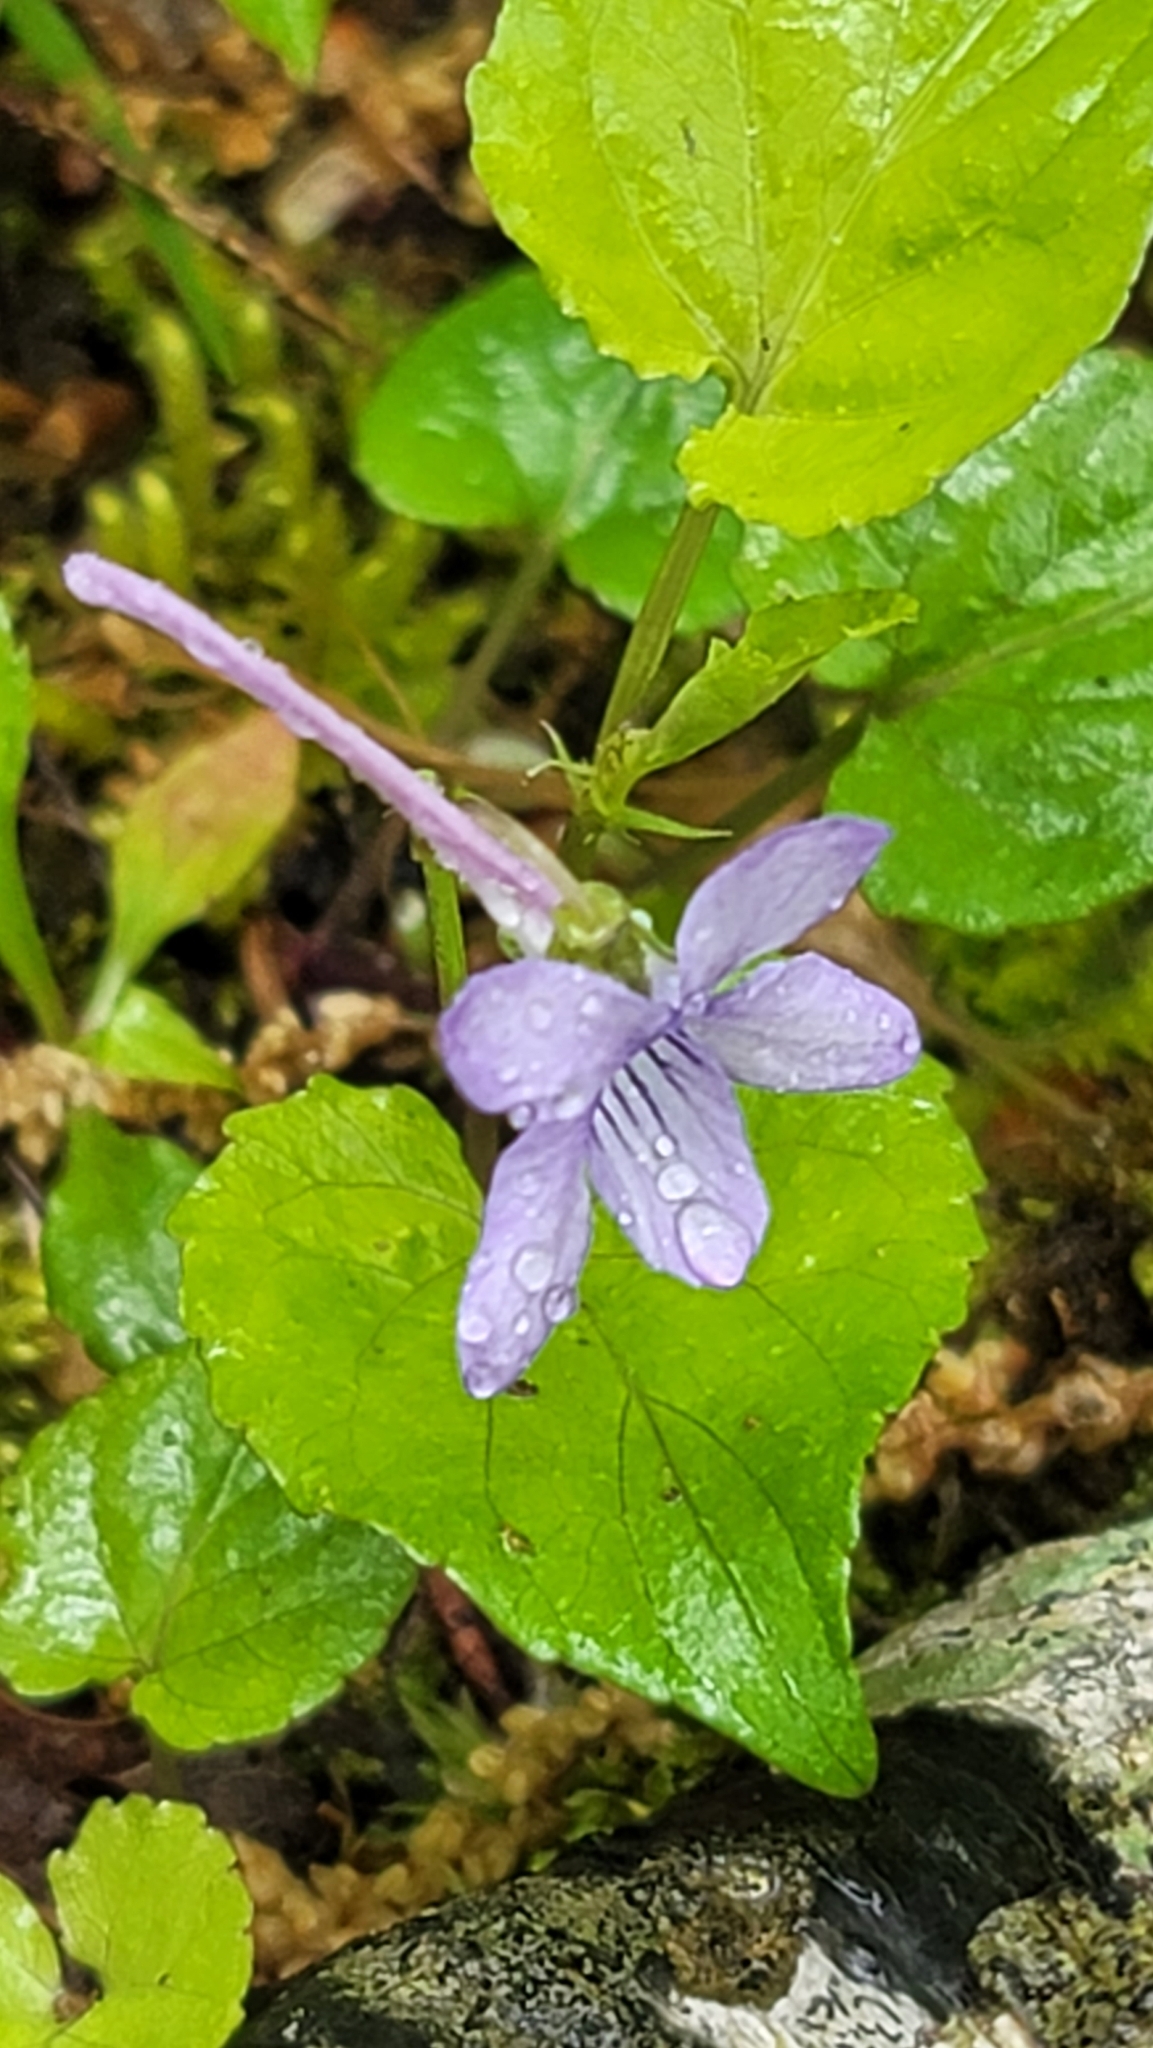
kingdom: Plantae
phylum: Tracheophyta
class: Magnoliopsida
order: Malpighiales
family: Violaceae
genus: Viola
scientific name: Viola rostrata
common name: Long-spur violet
